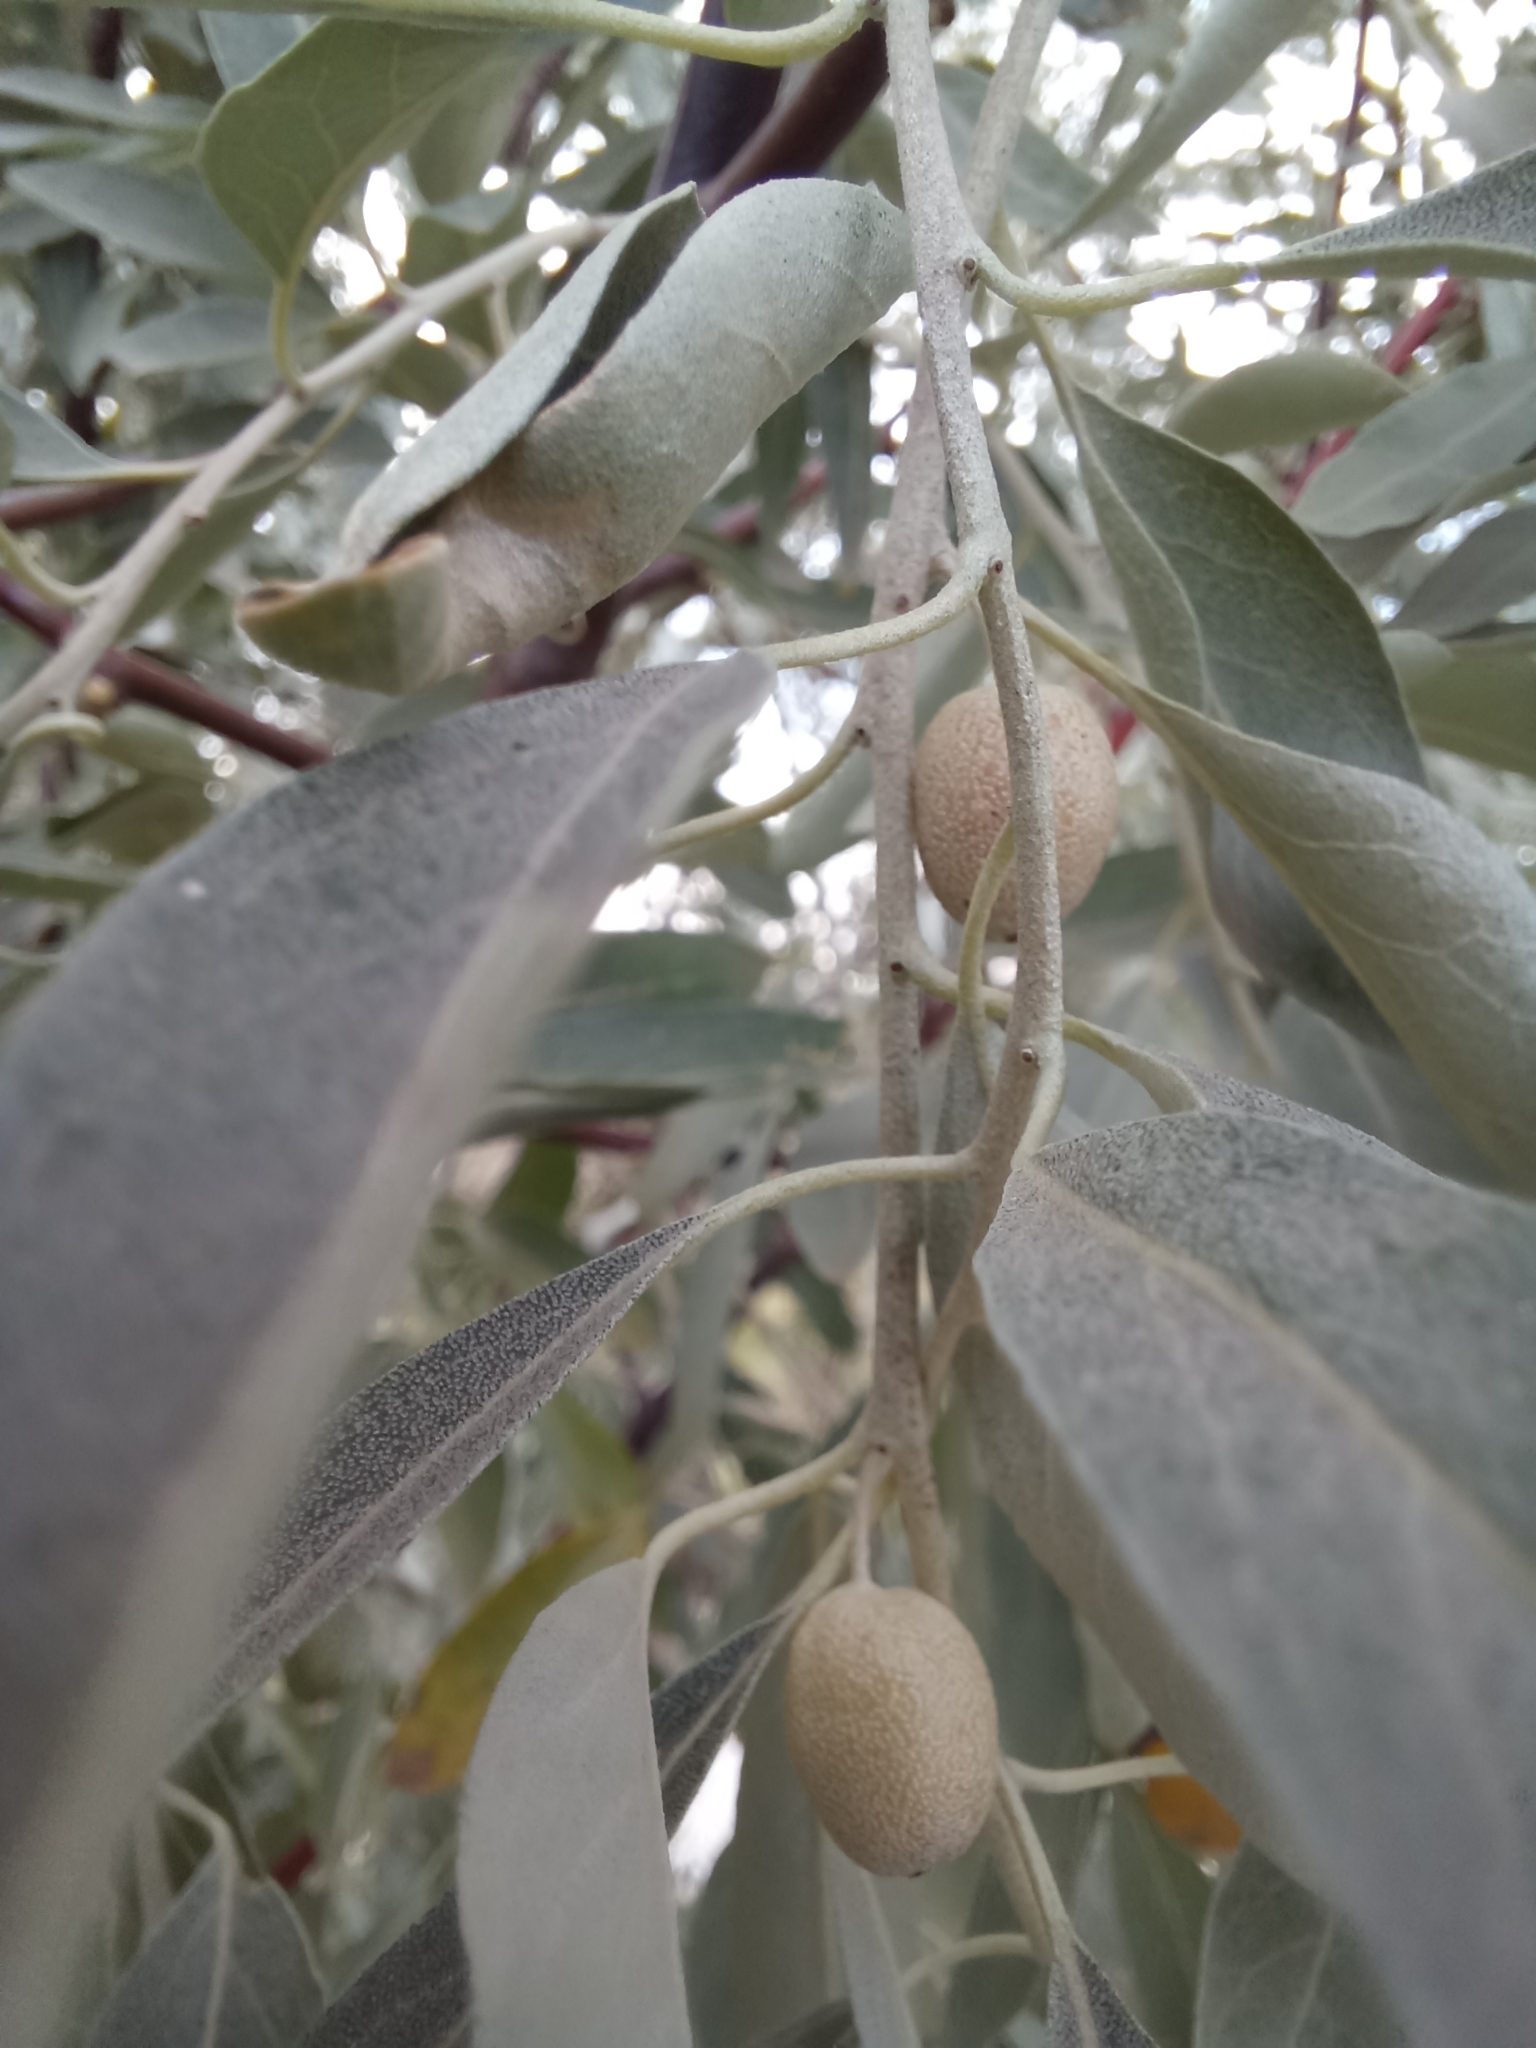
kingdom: Plantae
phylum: Tracheophyta
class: Magnoliopsida
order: Rosales
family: Elaeagnaceae
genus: Elaeagnus
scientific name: Elaeagnus angustifolia
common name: Russian olive
